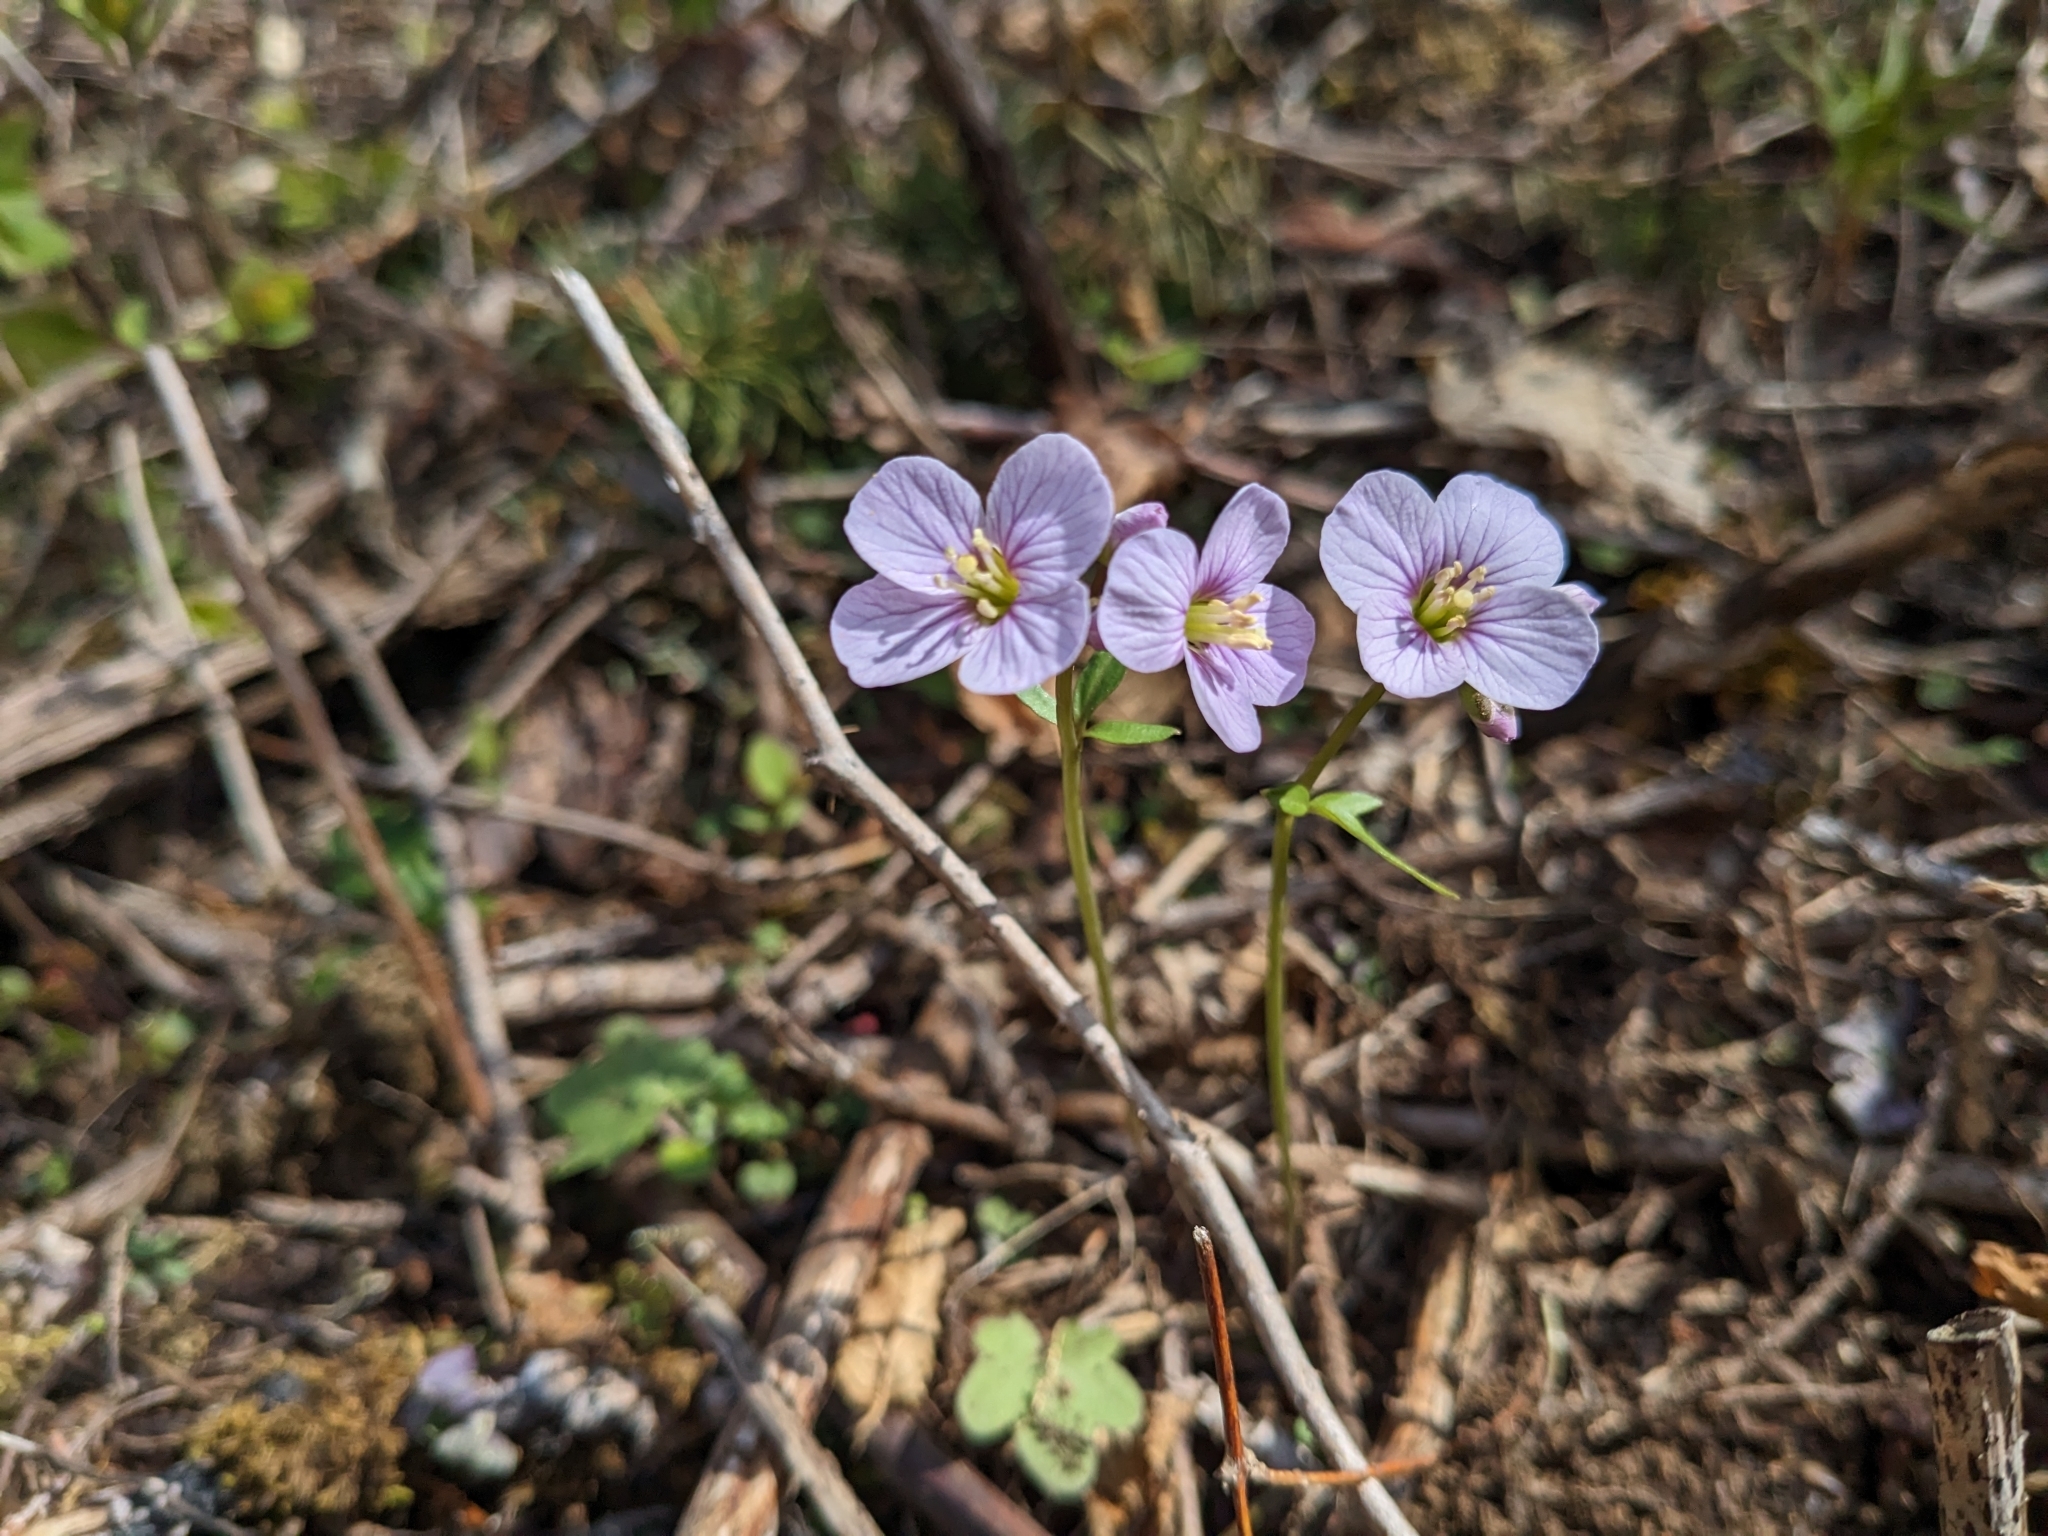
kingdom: Plantae
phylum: Tracheophyta
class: Magnoliopsida
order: Brassicales
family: Brassicaceae
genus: Cardamine
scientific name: Cardamine nuttallii
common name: Nuttall's toothwort
